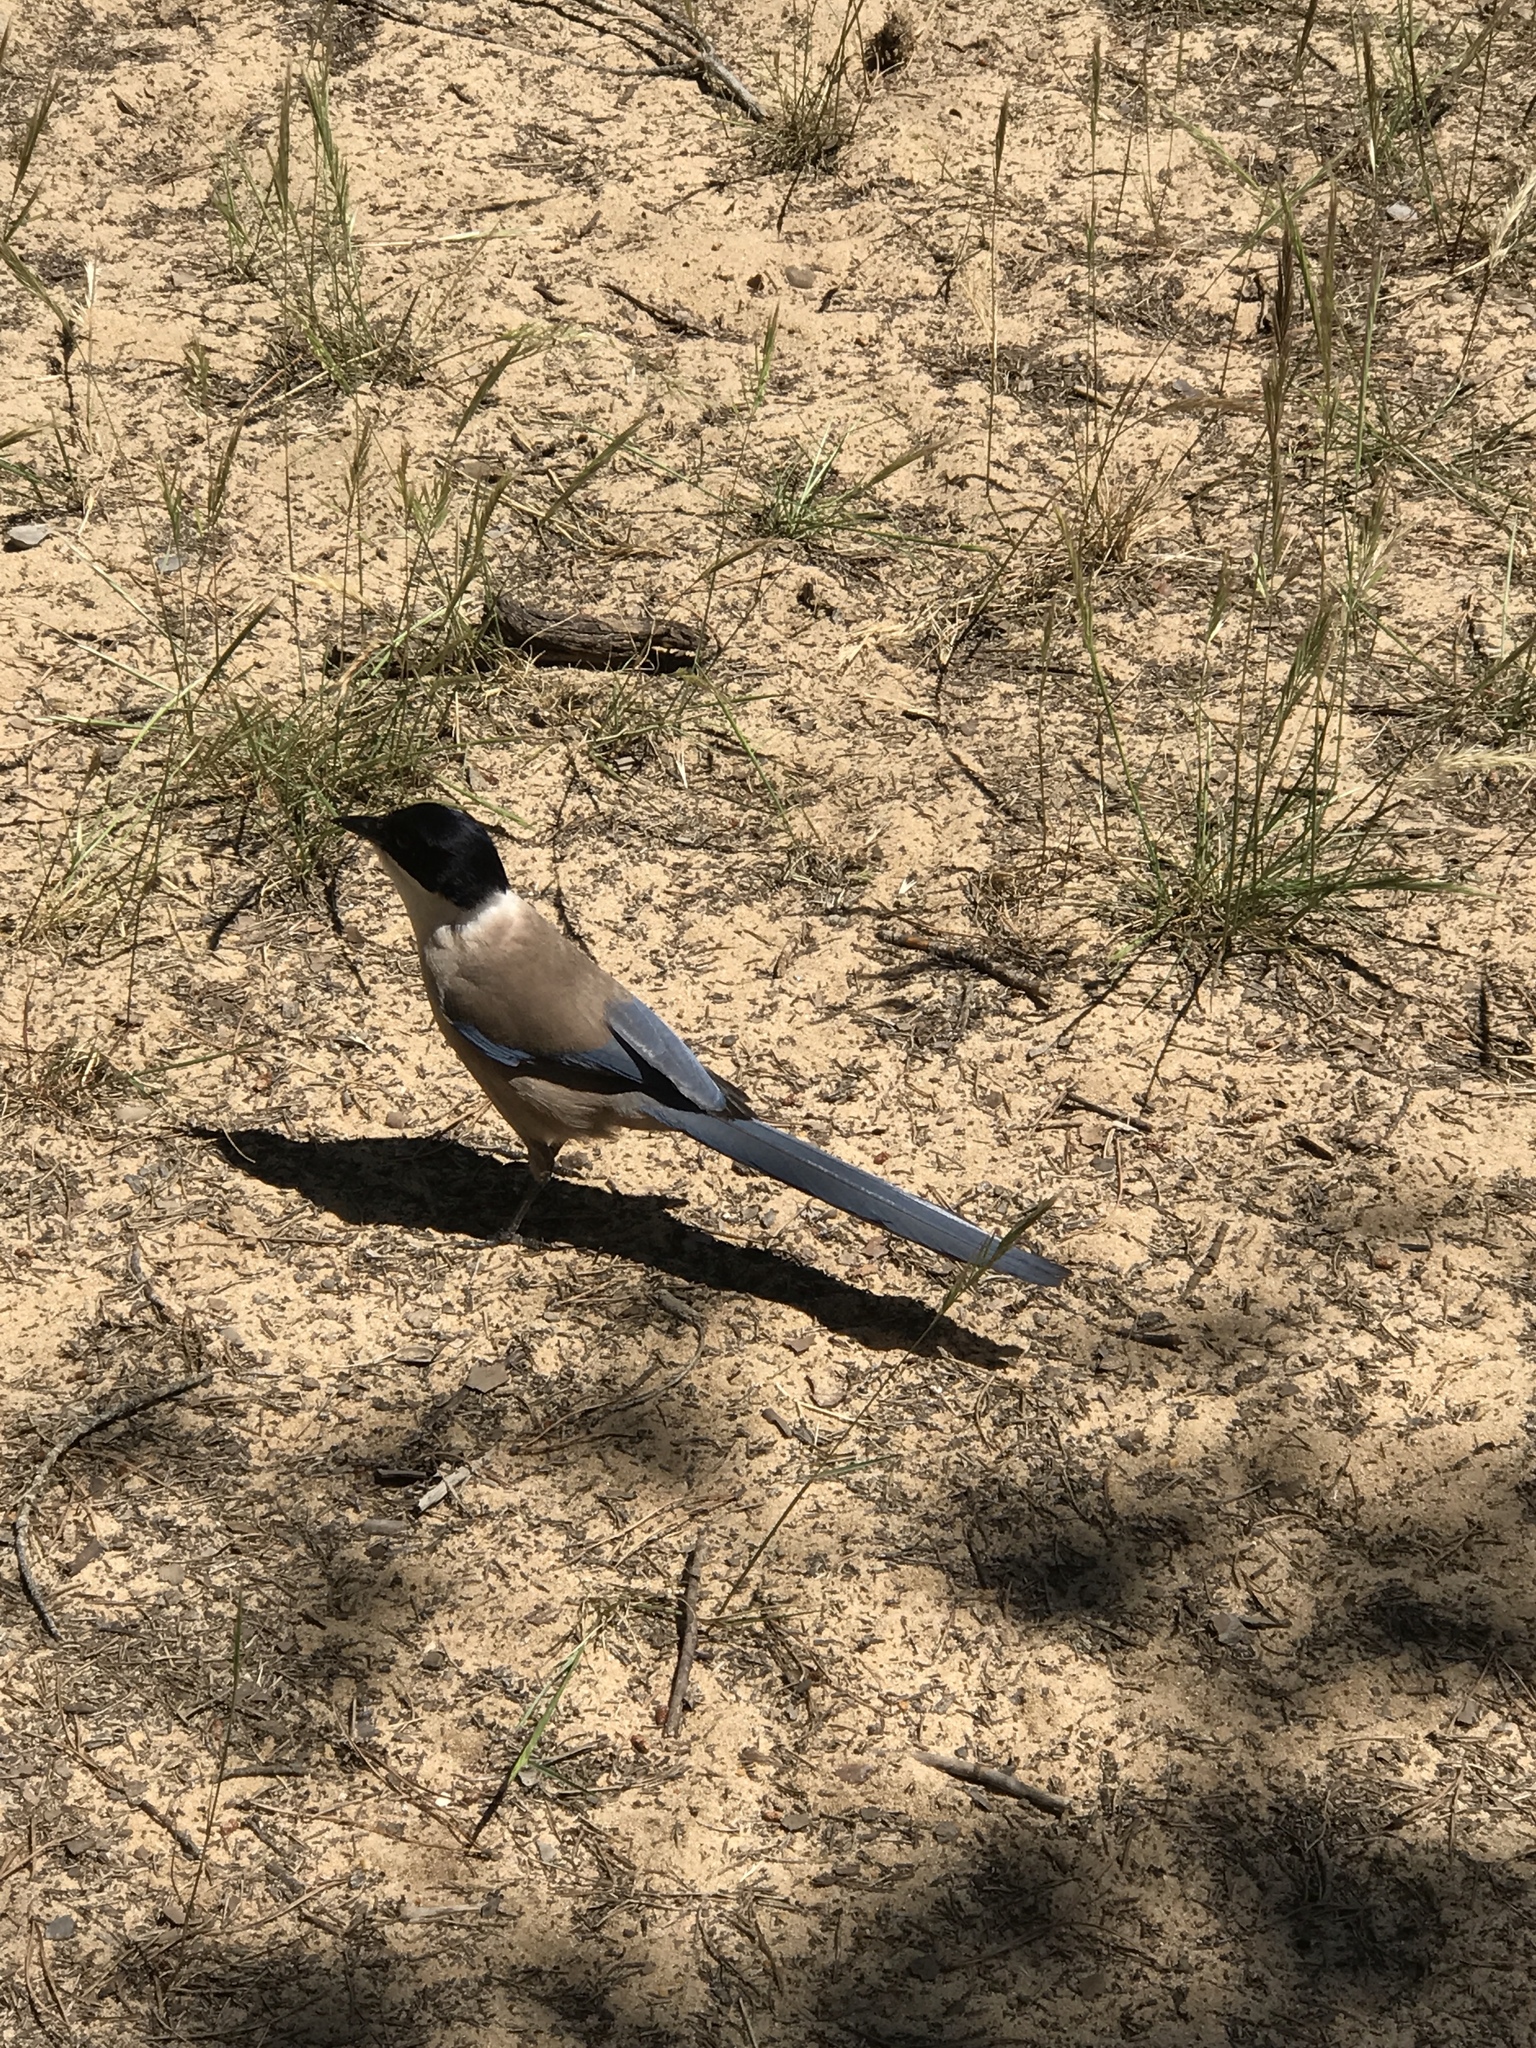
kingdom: Animalia
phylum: Chordata
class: Aves
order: Passeriformes
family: Corvidae
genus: Cyanopica
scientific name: Cyanopica cooki
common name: Iberian magpie
